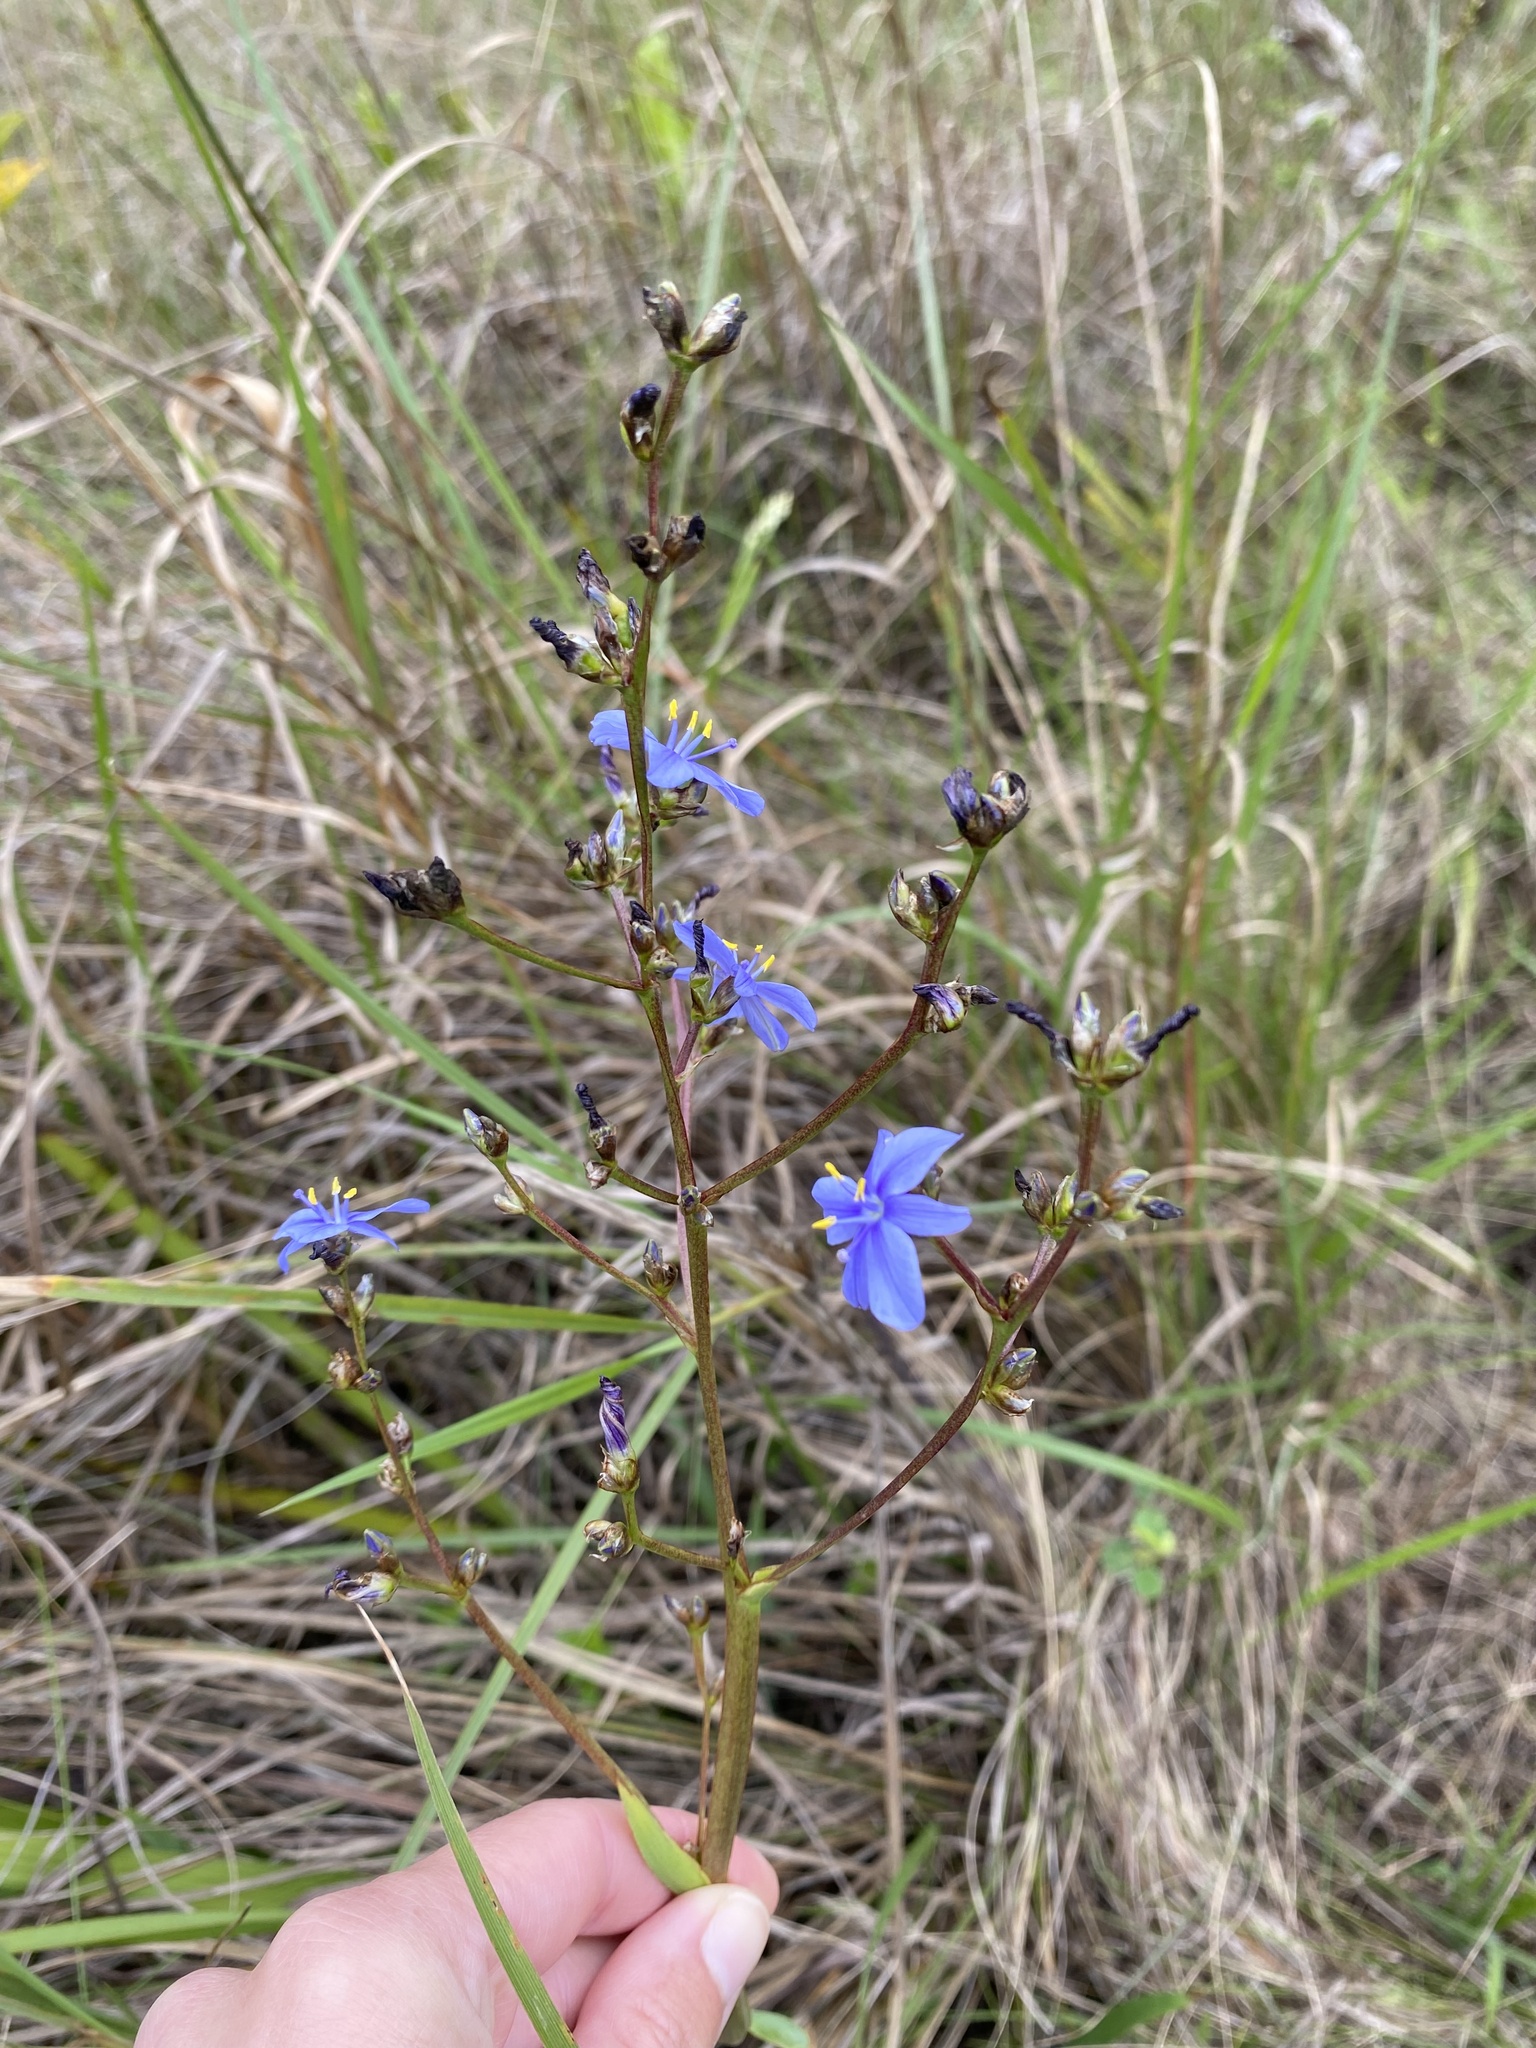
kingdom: Plantae
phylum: Tracheophyta
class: Liliopsida
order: Asparagales
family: Iridaceae
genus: Aristea
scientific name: Aristea ecklonii
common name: Blue corn-lily
